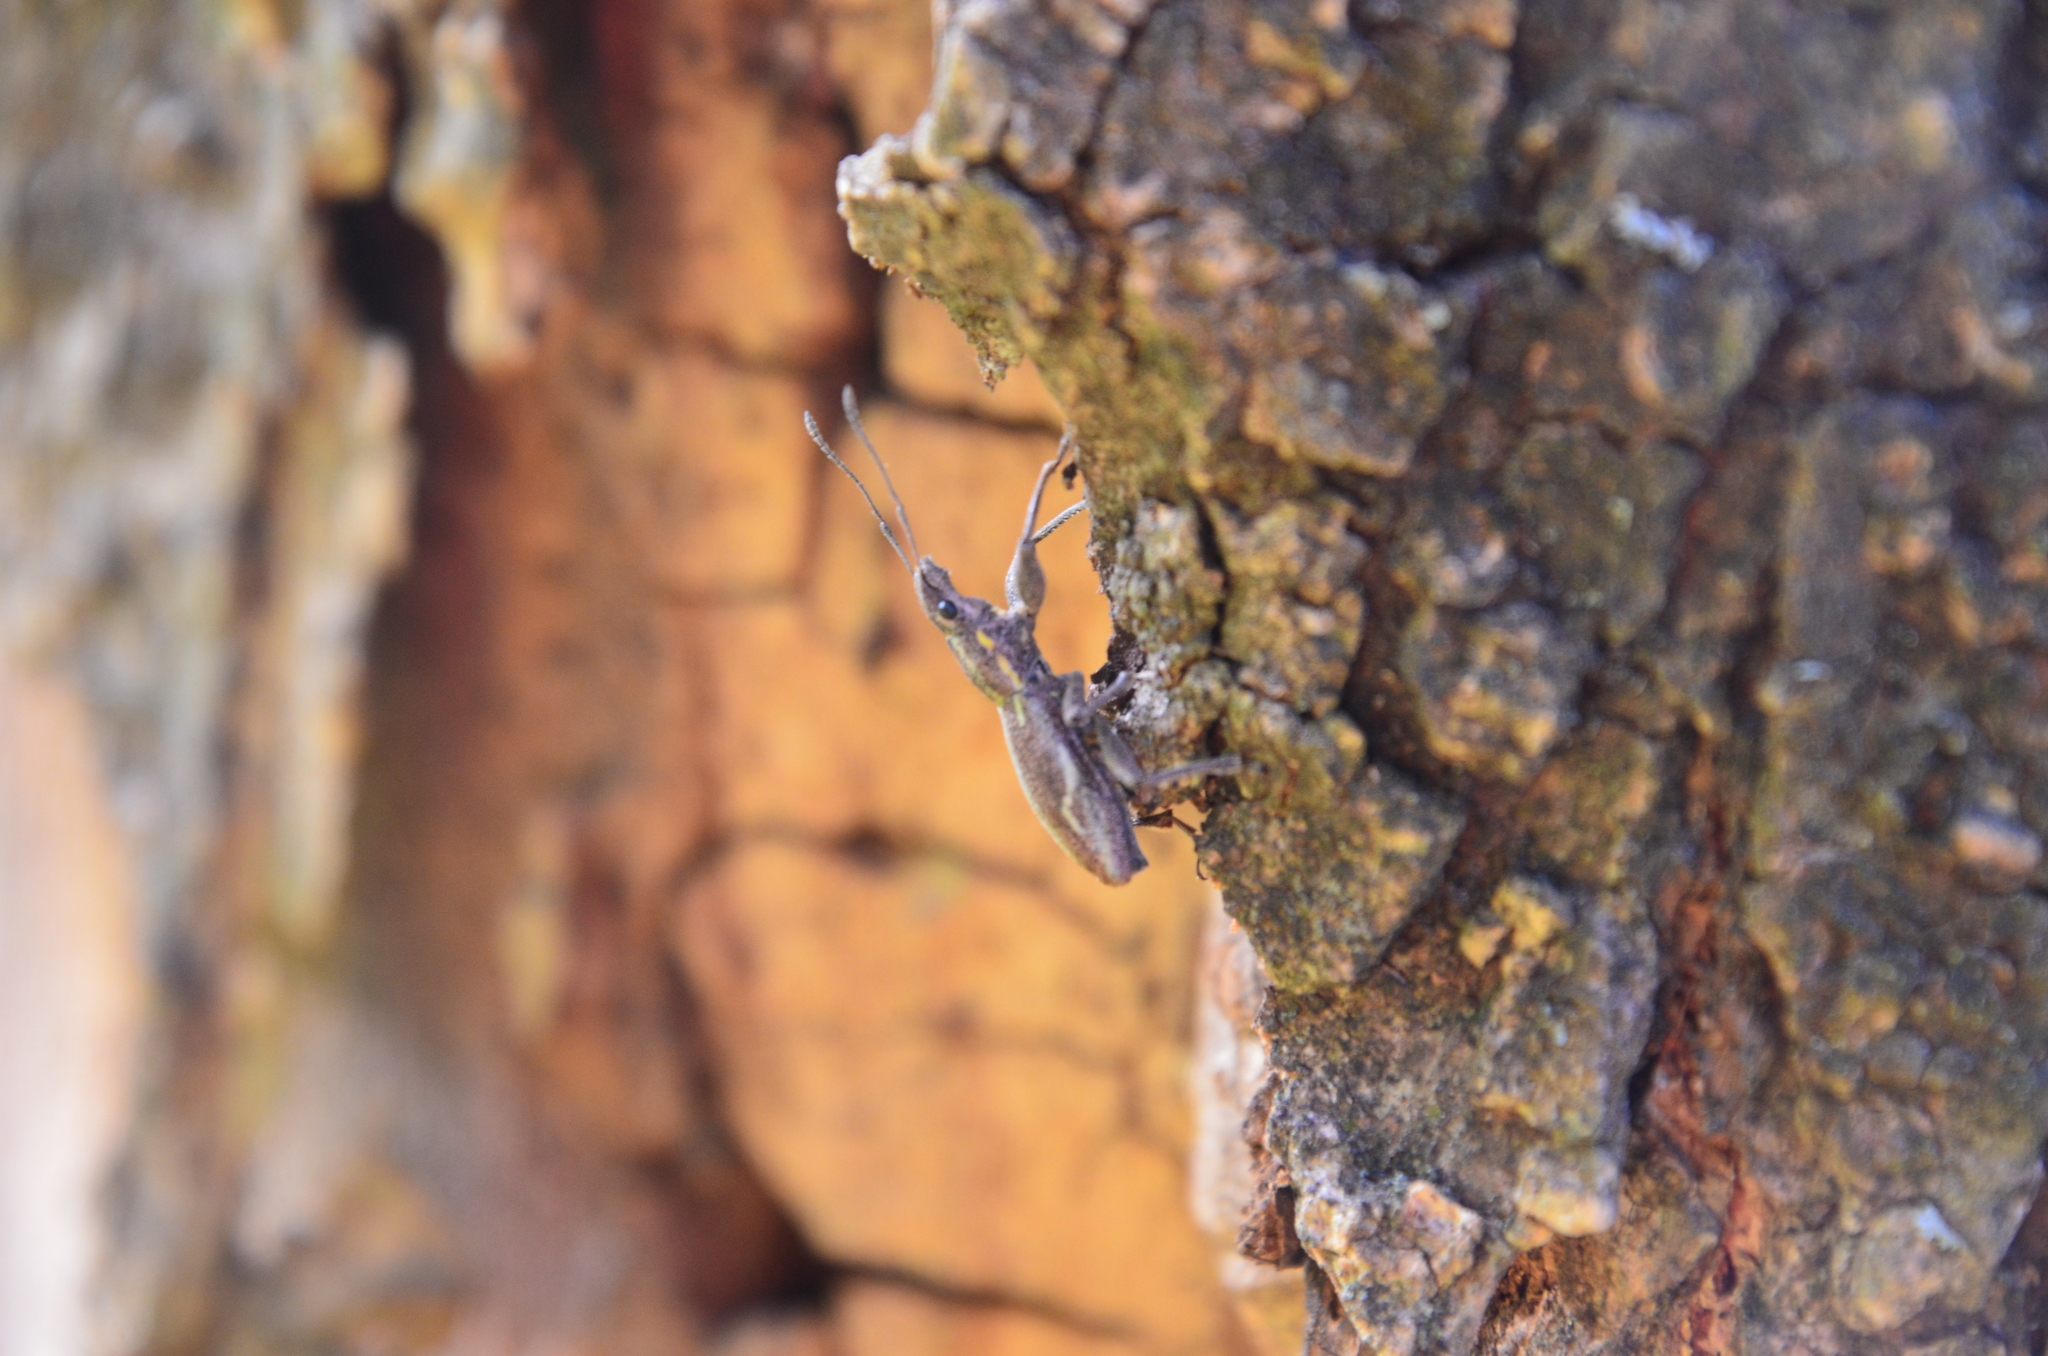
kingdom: Animalia
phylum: Arthropoda
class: Insecta
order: Coleoptera
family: Curculionidae
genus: Naupactus
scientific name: Naupactus xanthographus
